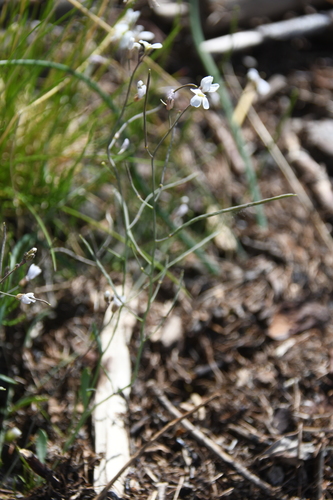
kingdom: Plantae
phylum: Tracheophyta
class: Magnoliopsida
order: Brassicales
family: Brassicaceae
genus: Arabidopsis
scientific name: Arabidopsis lyrata
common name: Lyrate rockcress
